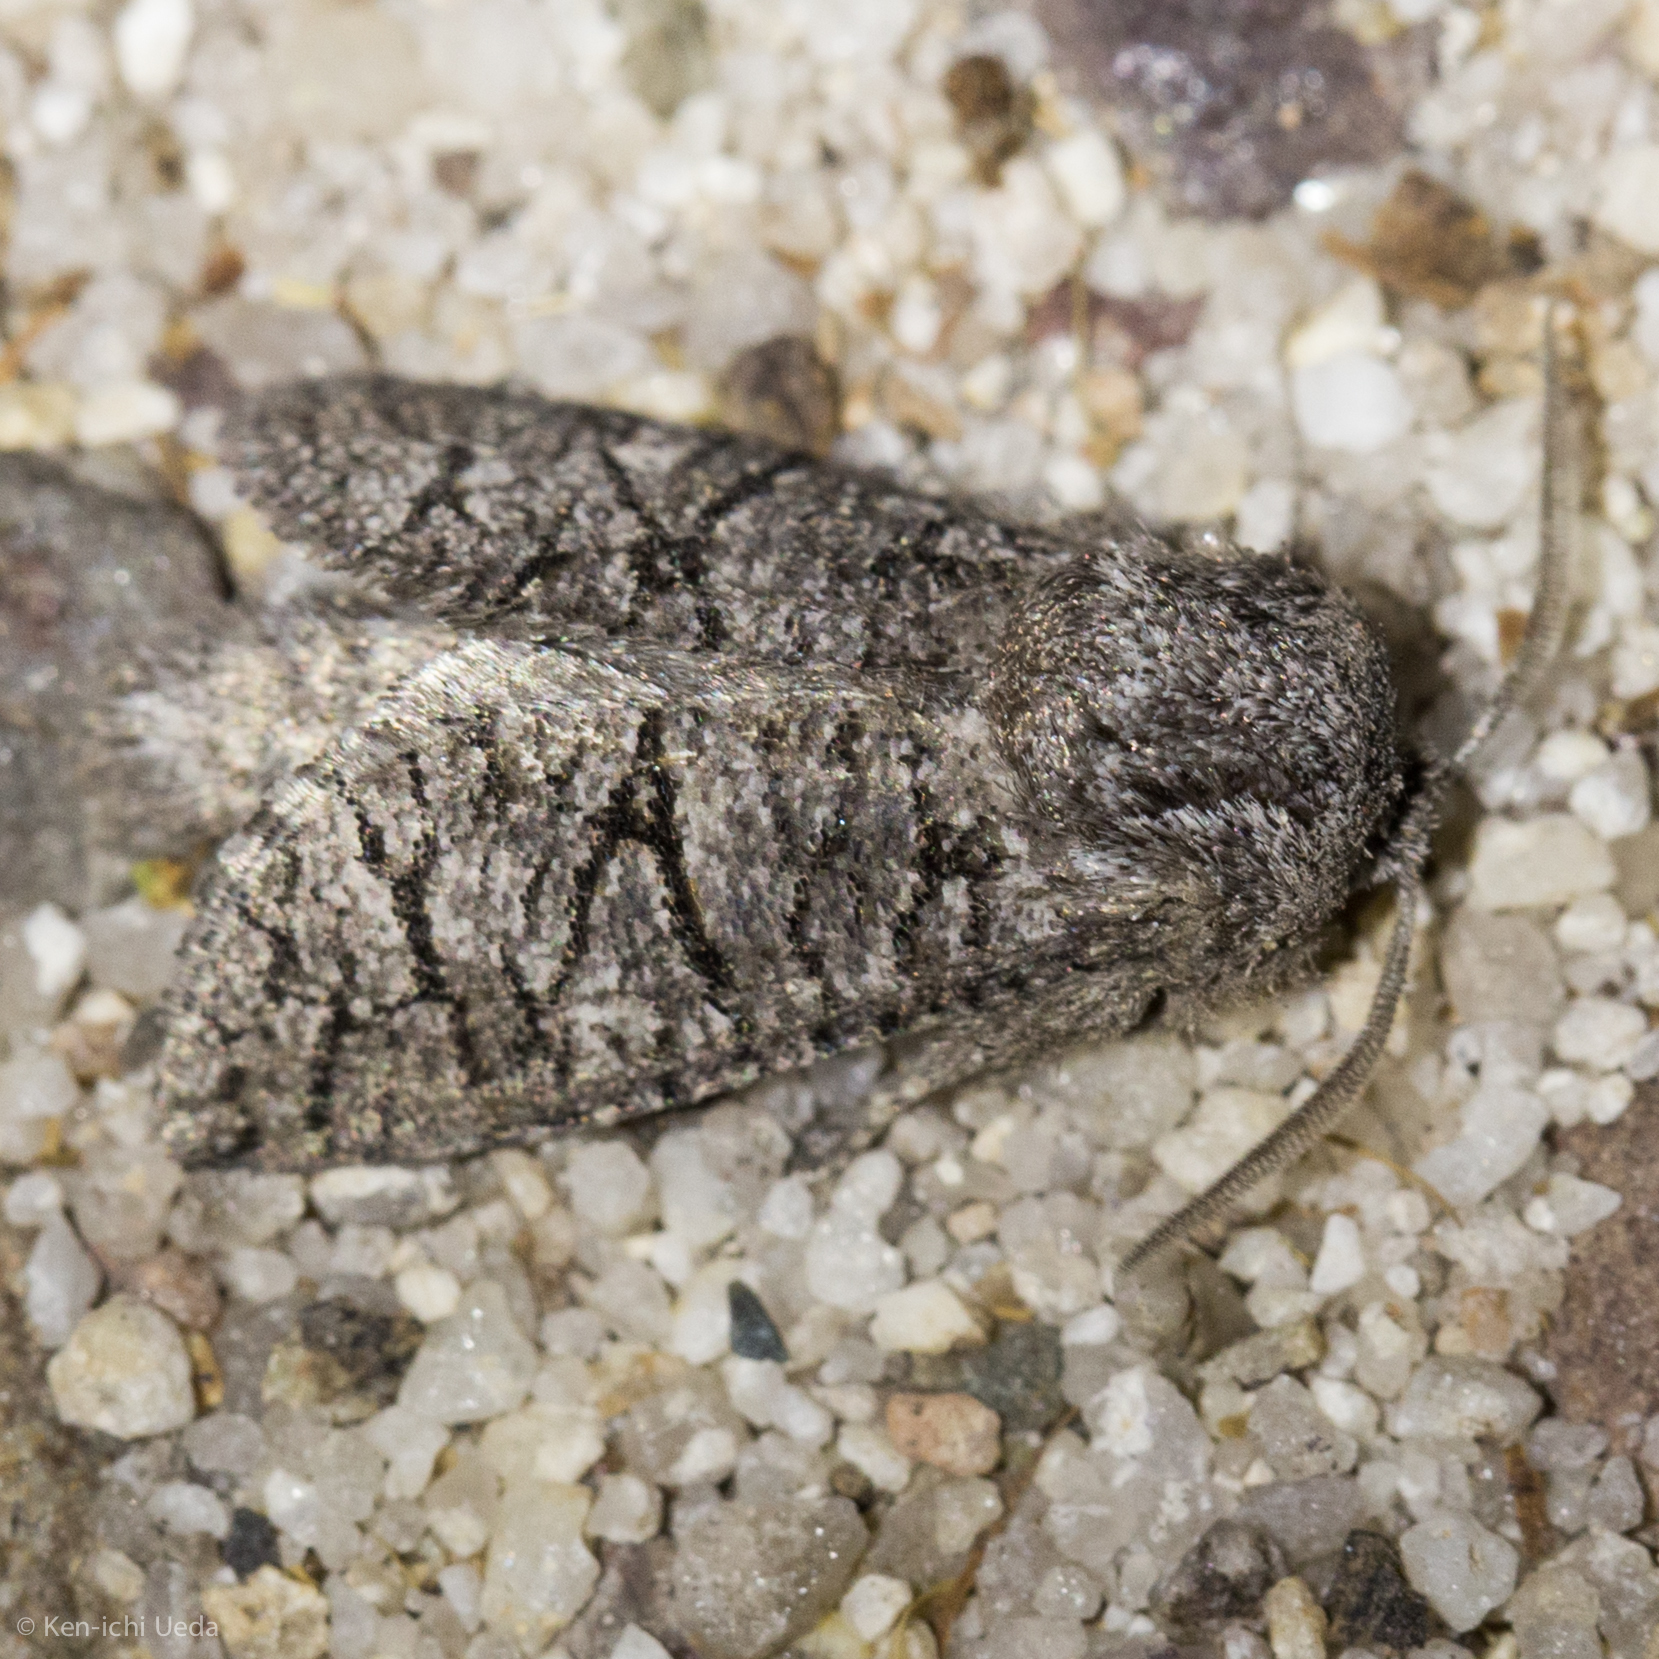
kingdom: Animalia
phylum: Arthropoda
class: Insecta
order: Lepidoptera
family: Cossidae
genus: Fania
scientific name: Fania nanus
